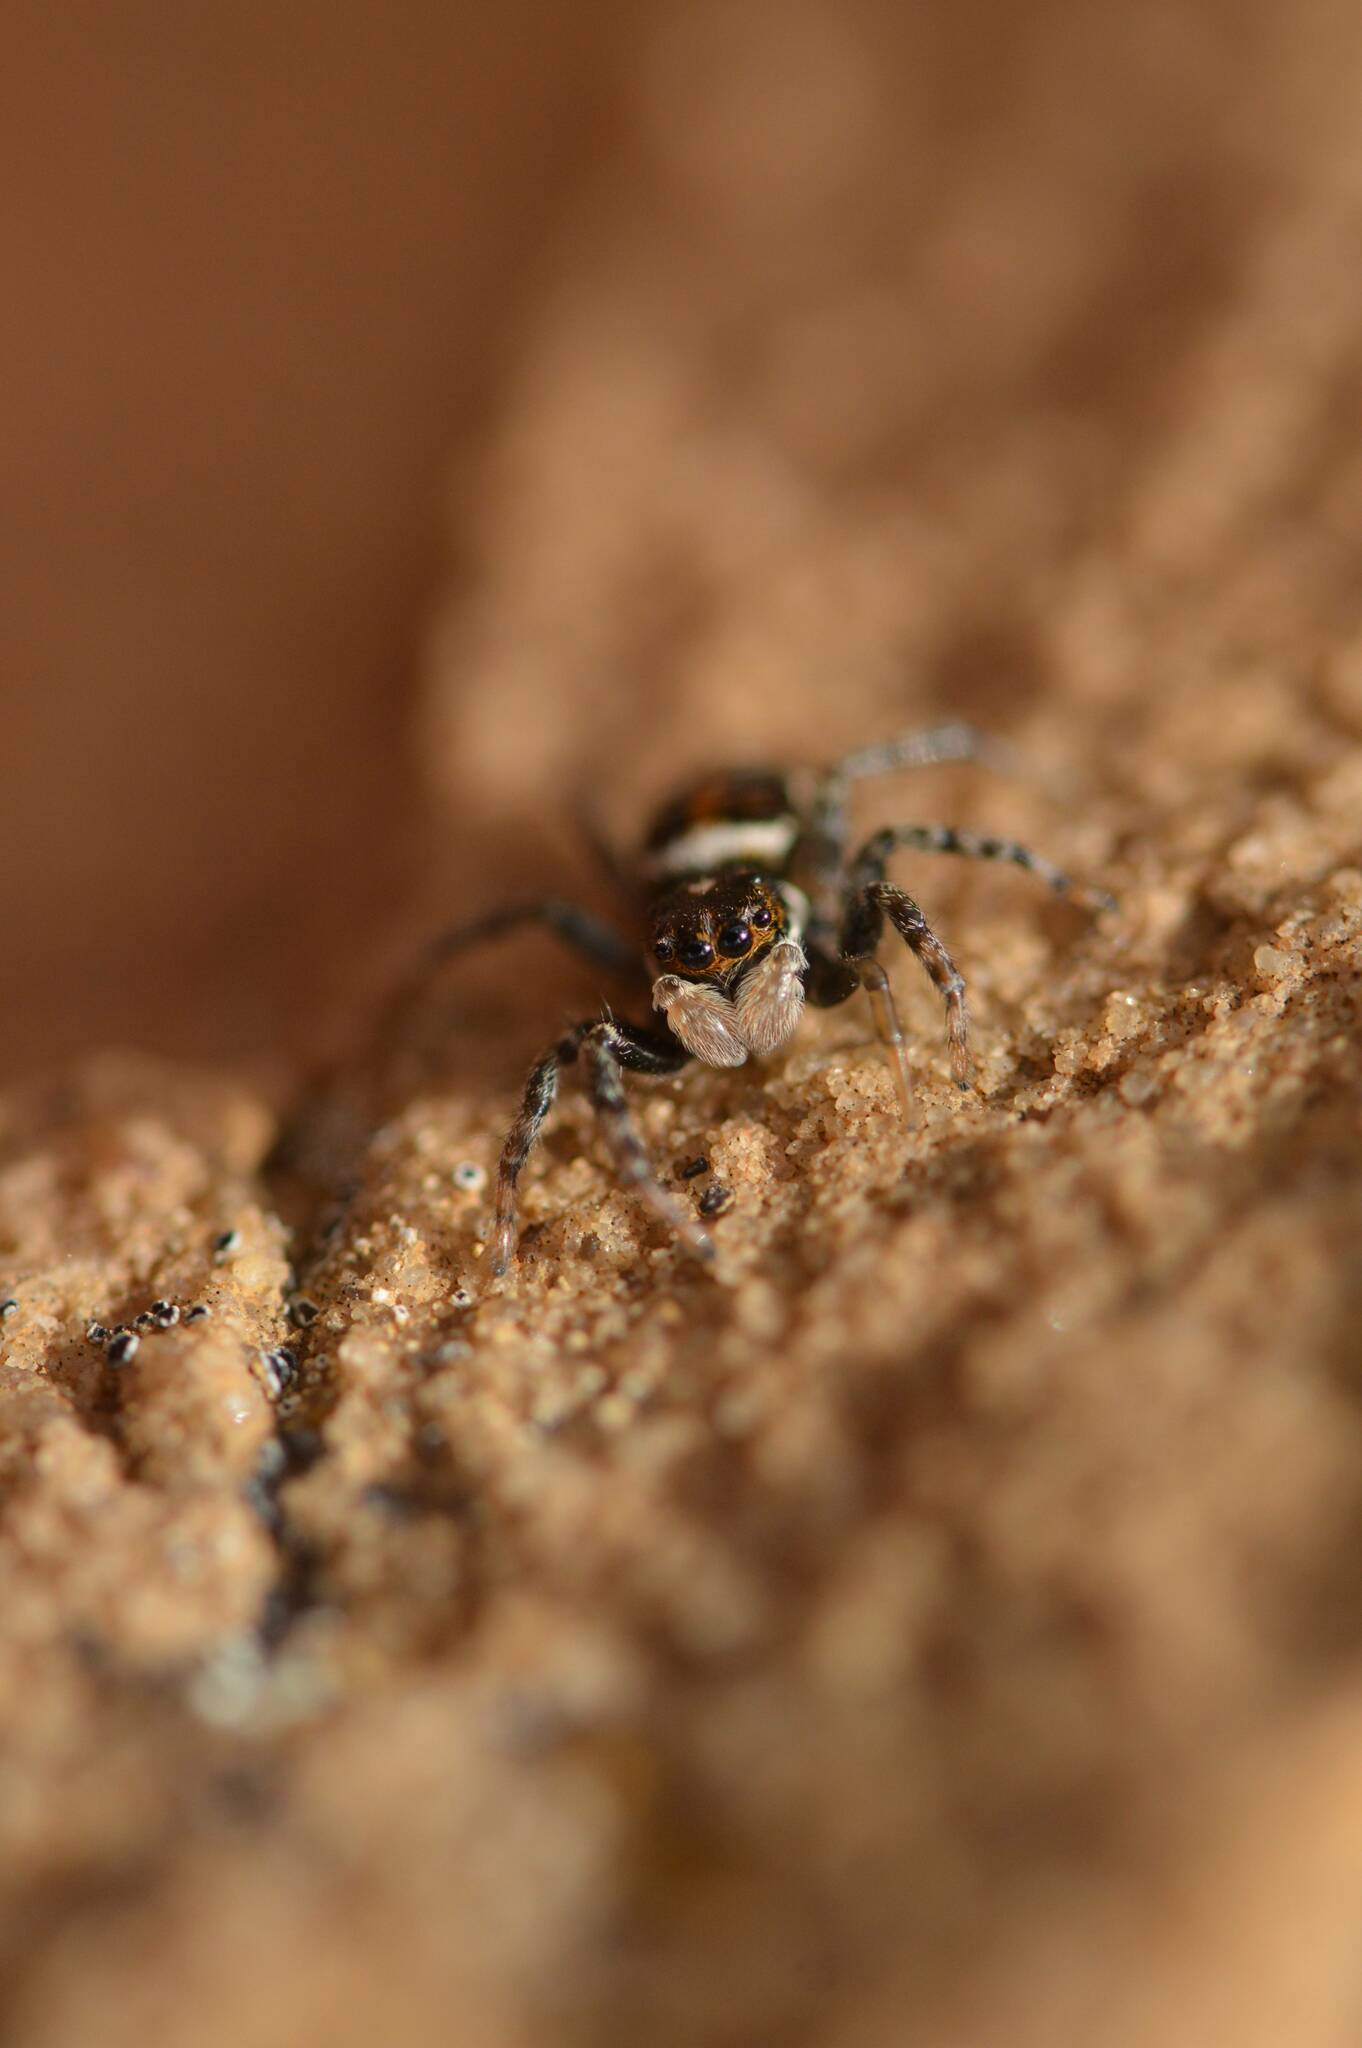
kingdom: Animalia
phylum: Arthropoda
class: Arachnida
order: Araneae
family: Salticidae
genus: Menemerus
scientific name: Menemerus semilimbatus
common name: Jumping spider
